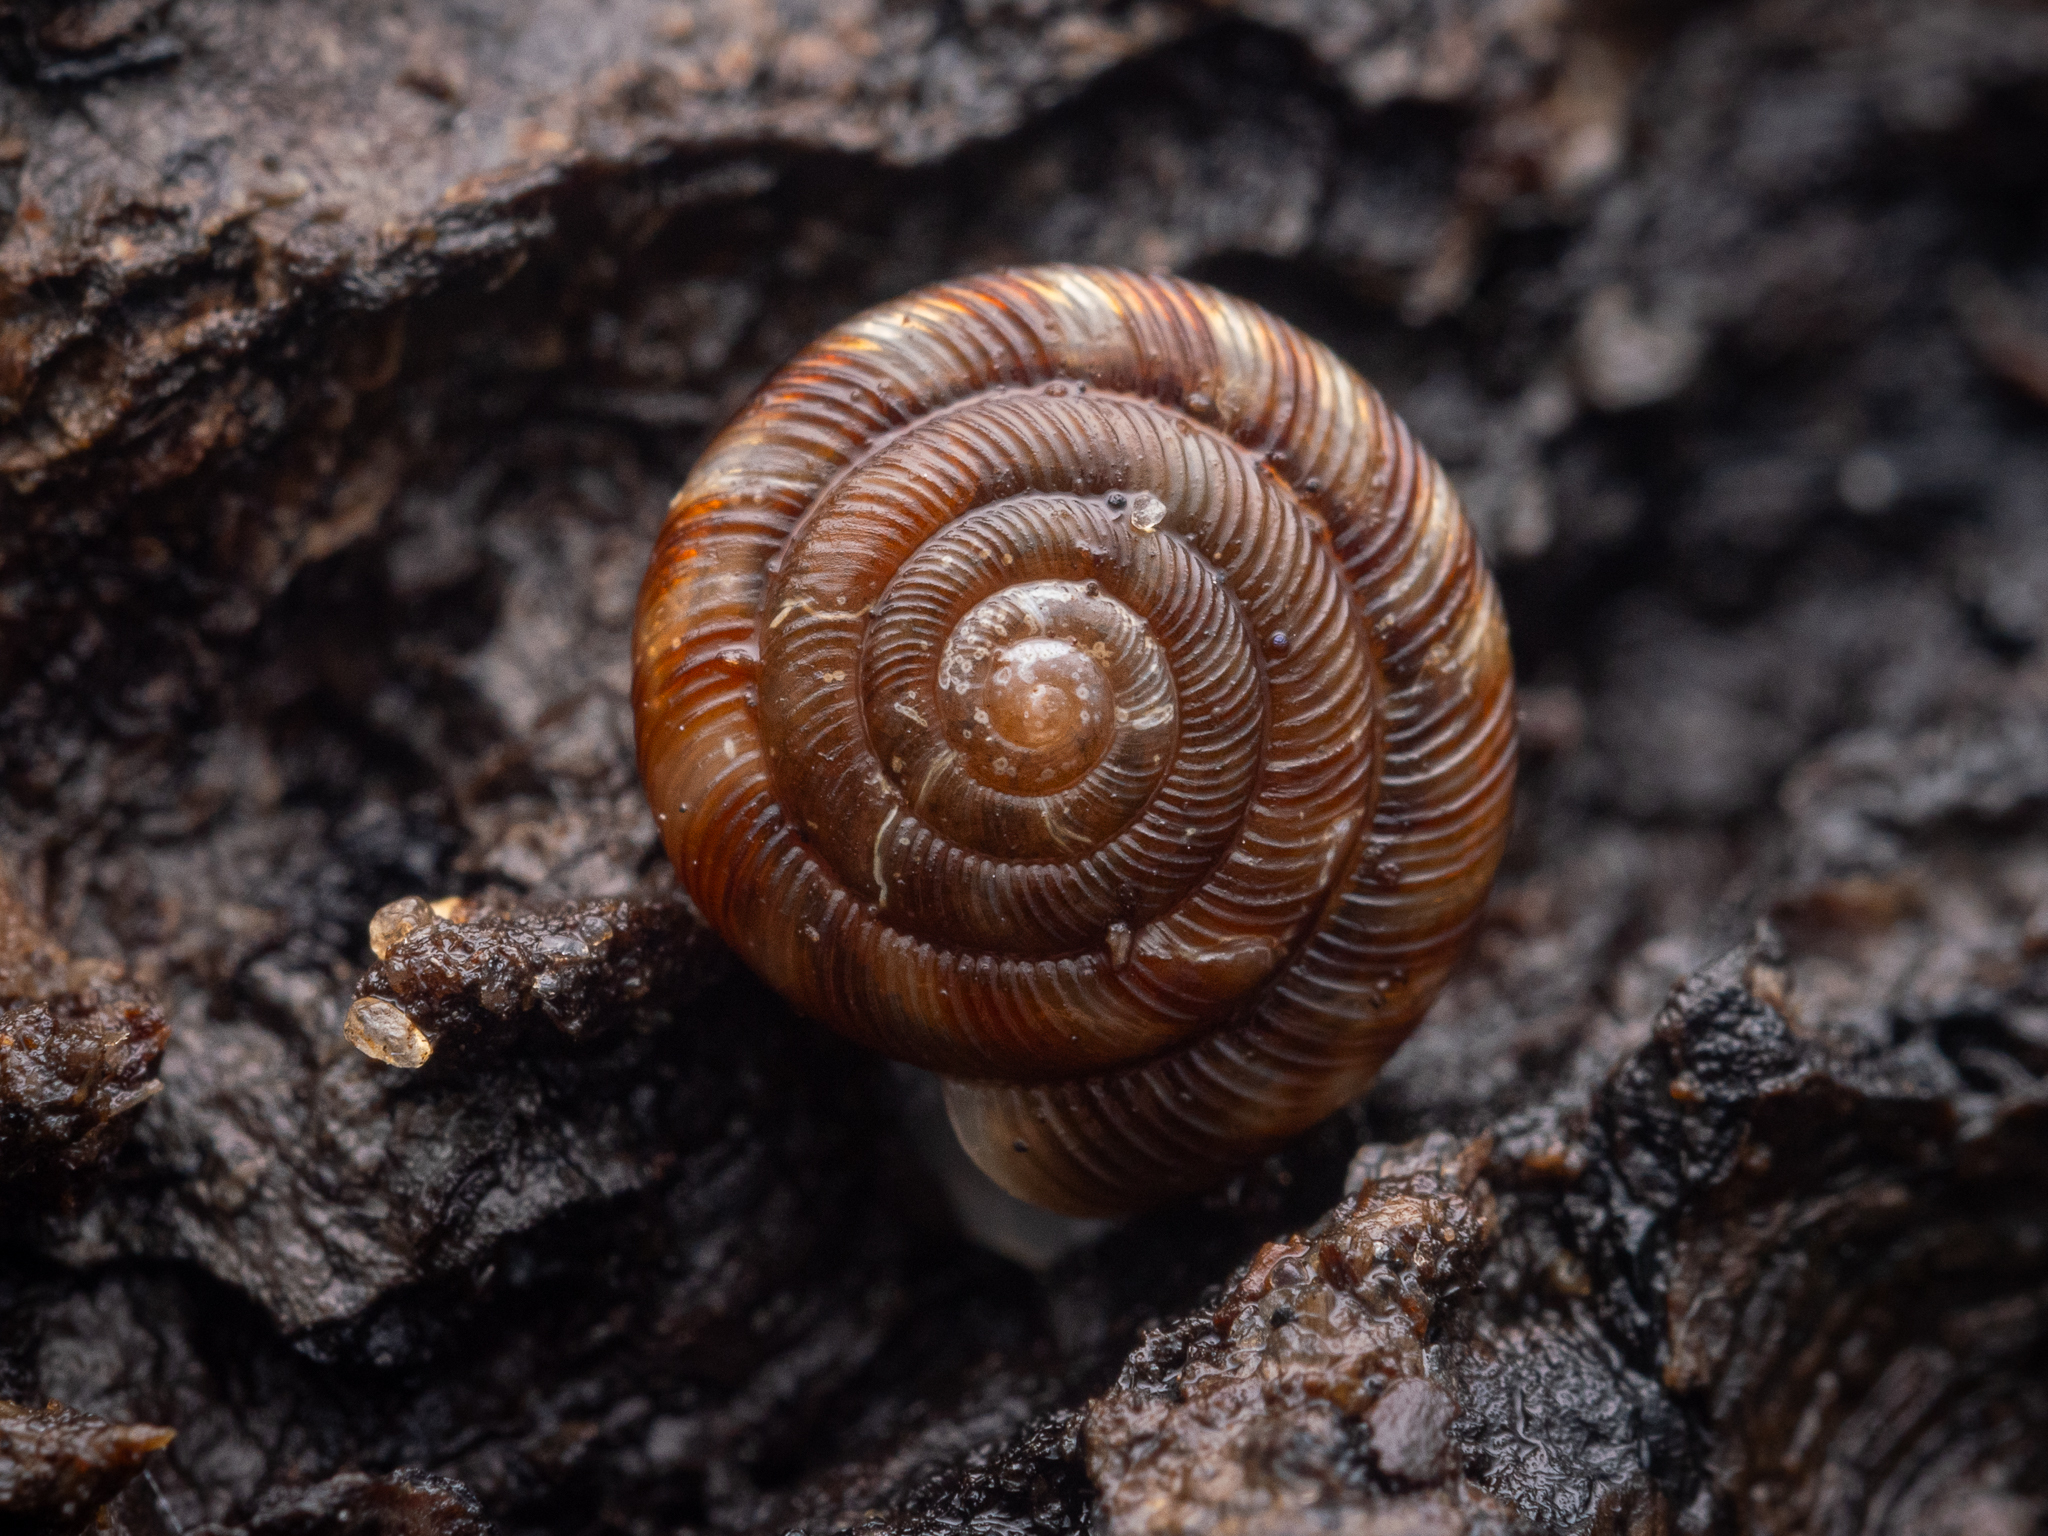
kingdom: Animalia
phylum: Mollusca
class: Gastropoda
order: Stylommatophora
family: Discidae
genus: Discus
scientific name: Discus rotundatus
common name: Rounded snail
